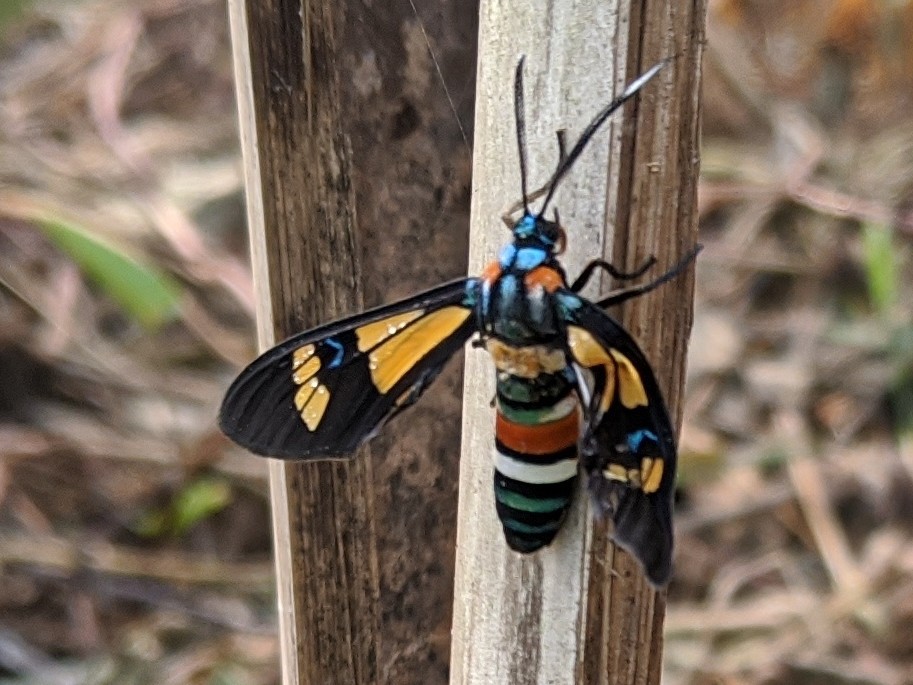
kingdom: Animalia
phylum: Arthropoda
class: Insecta
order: Lepidoptera
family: Erebidae
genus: Euchromia
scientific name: Euchromia lethe
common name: Basker
